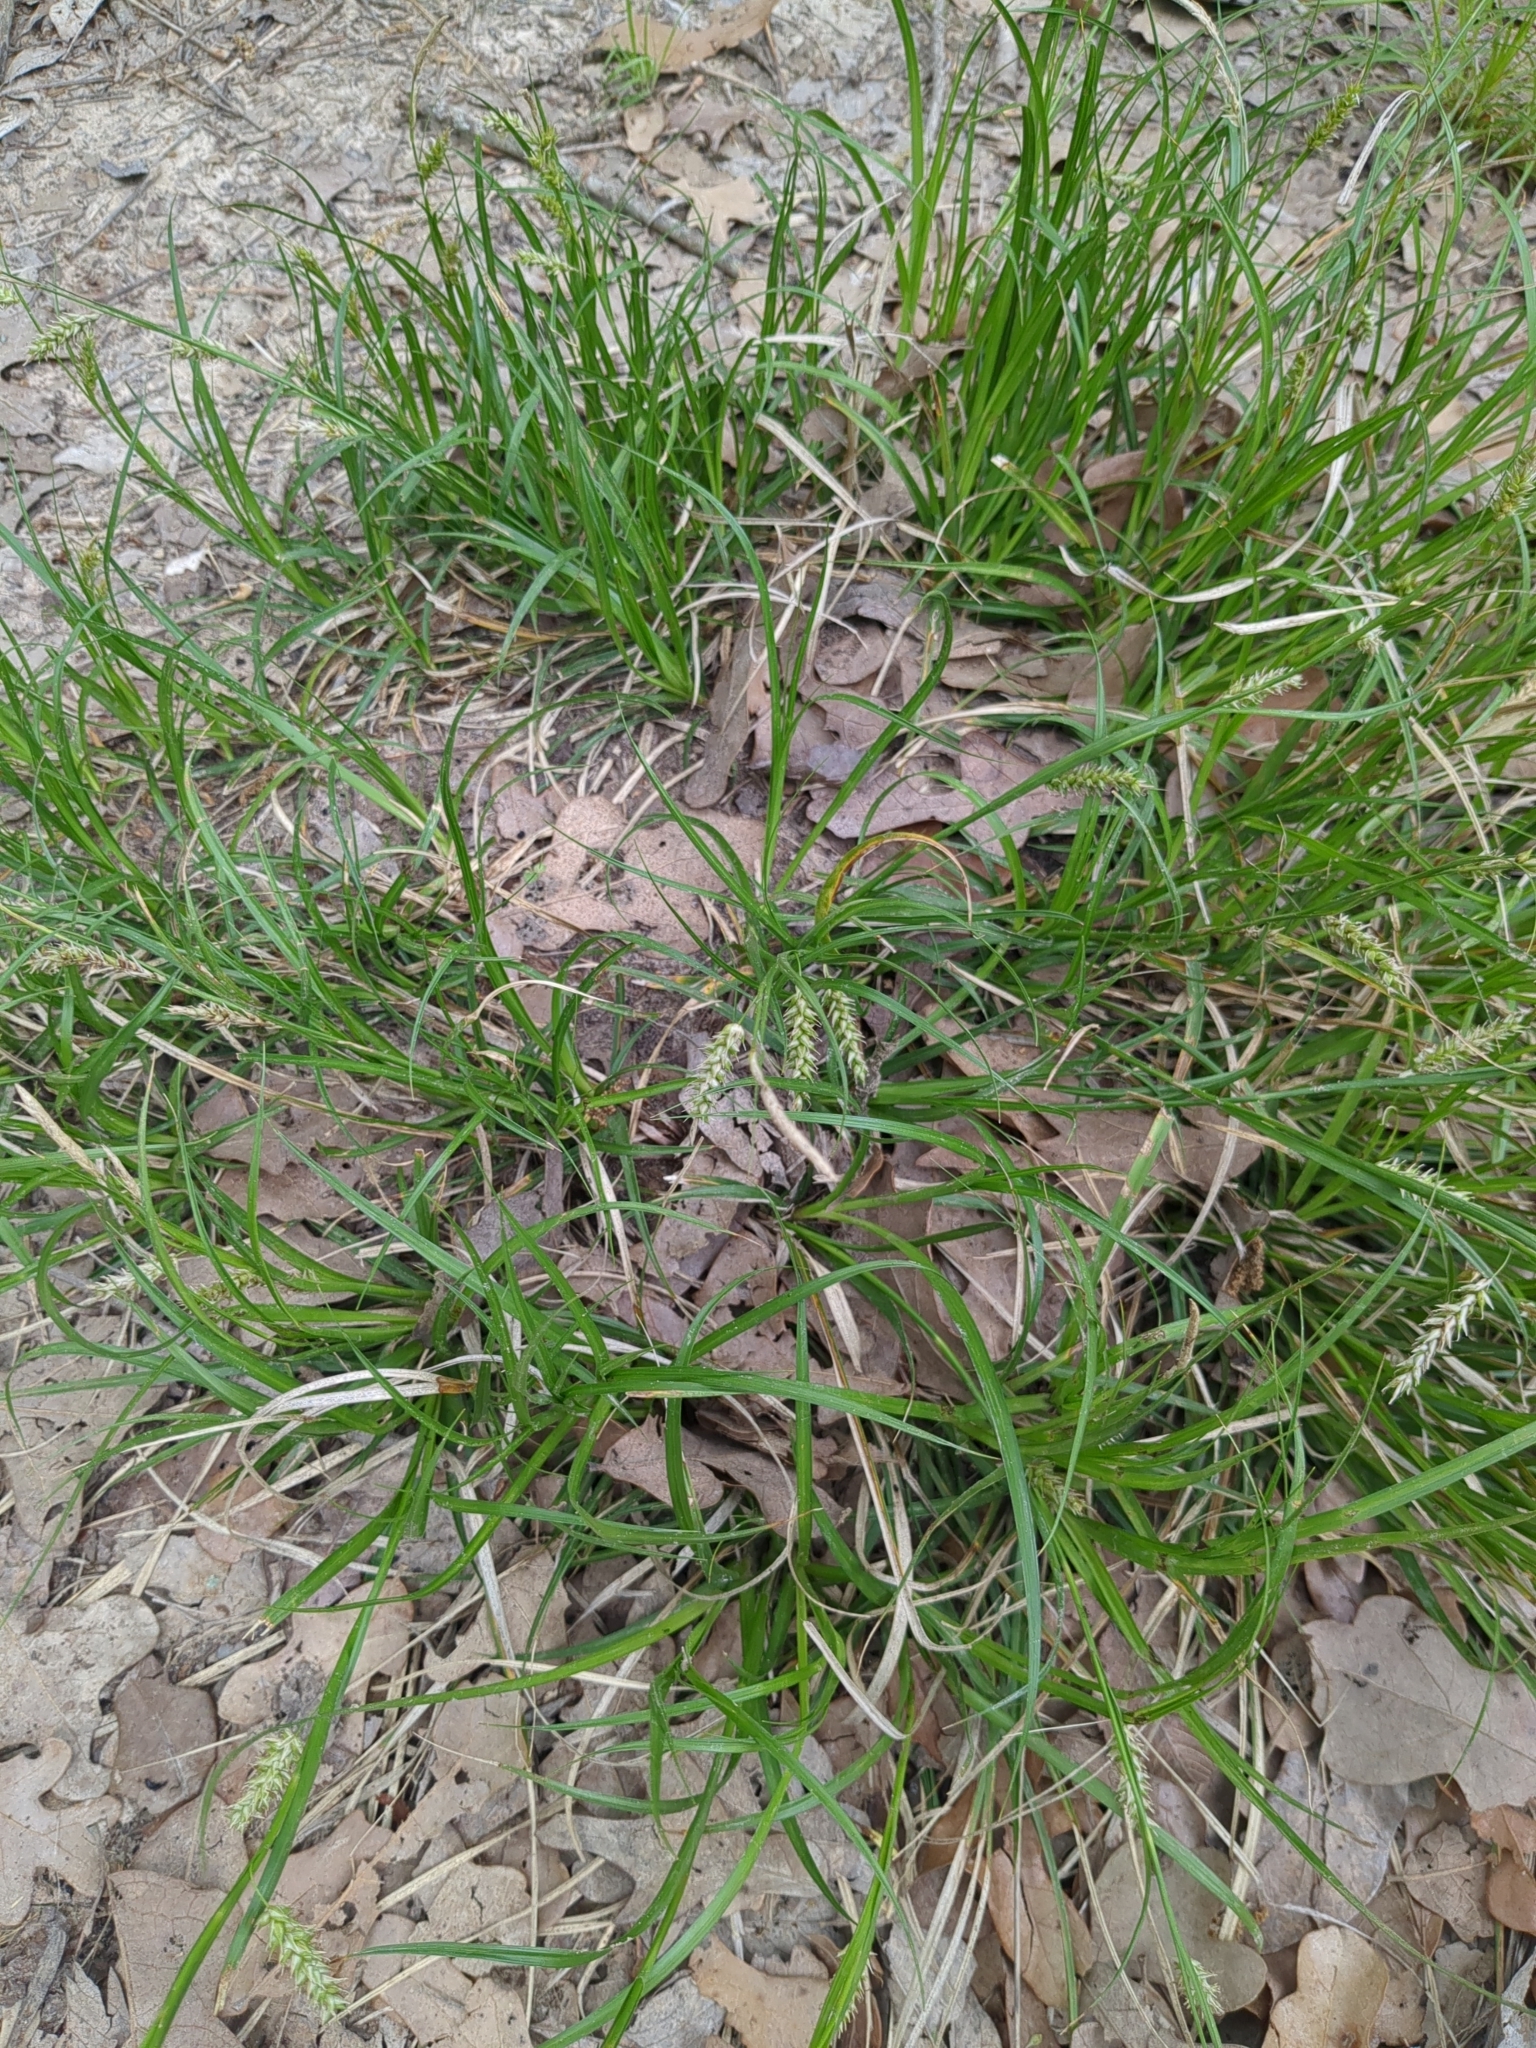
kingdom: Plantae
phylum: Tracheophyta
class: Liliopsida
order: Poales
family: Cyperaceae
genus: Carex
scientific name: Carex cherokeensis
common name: Cherokee sedge
